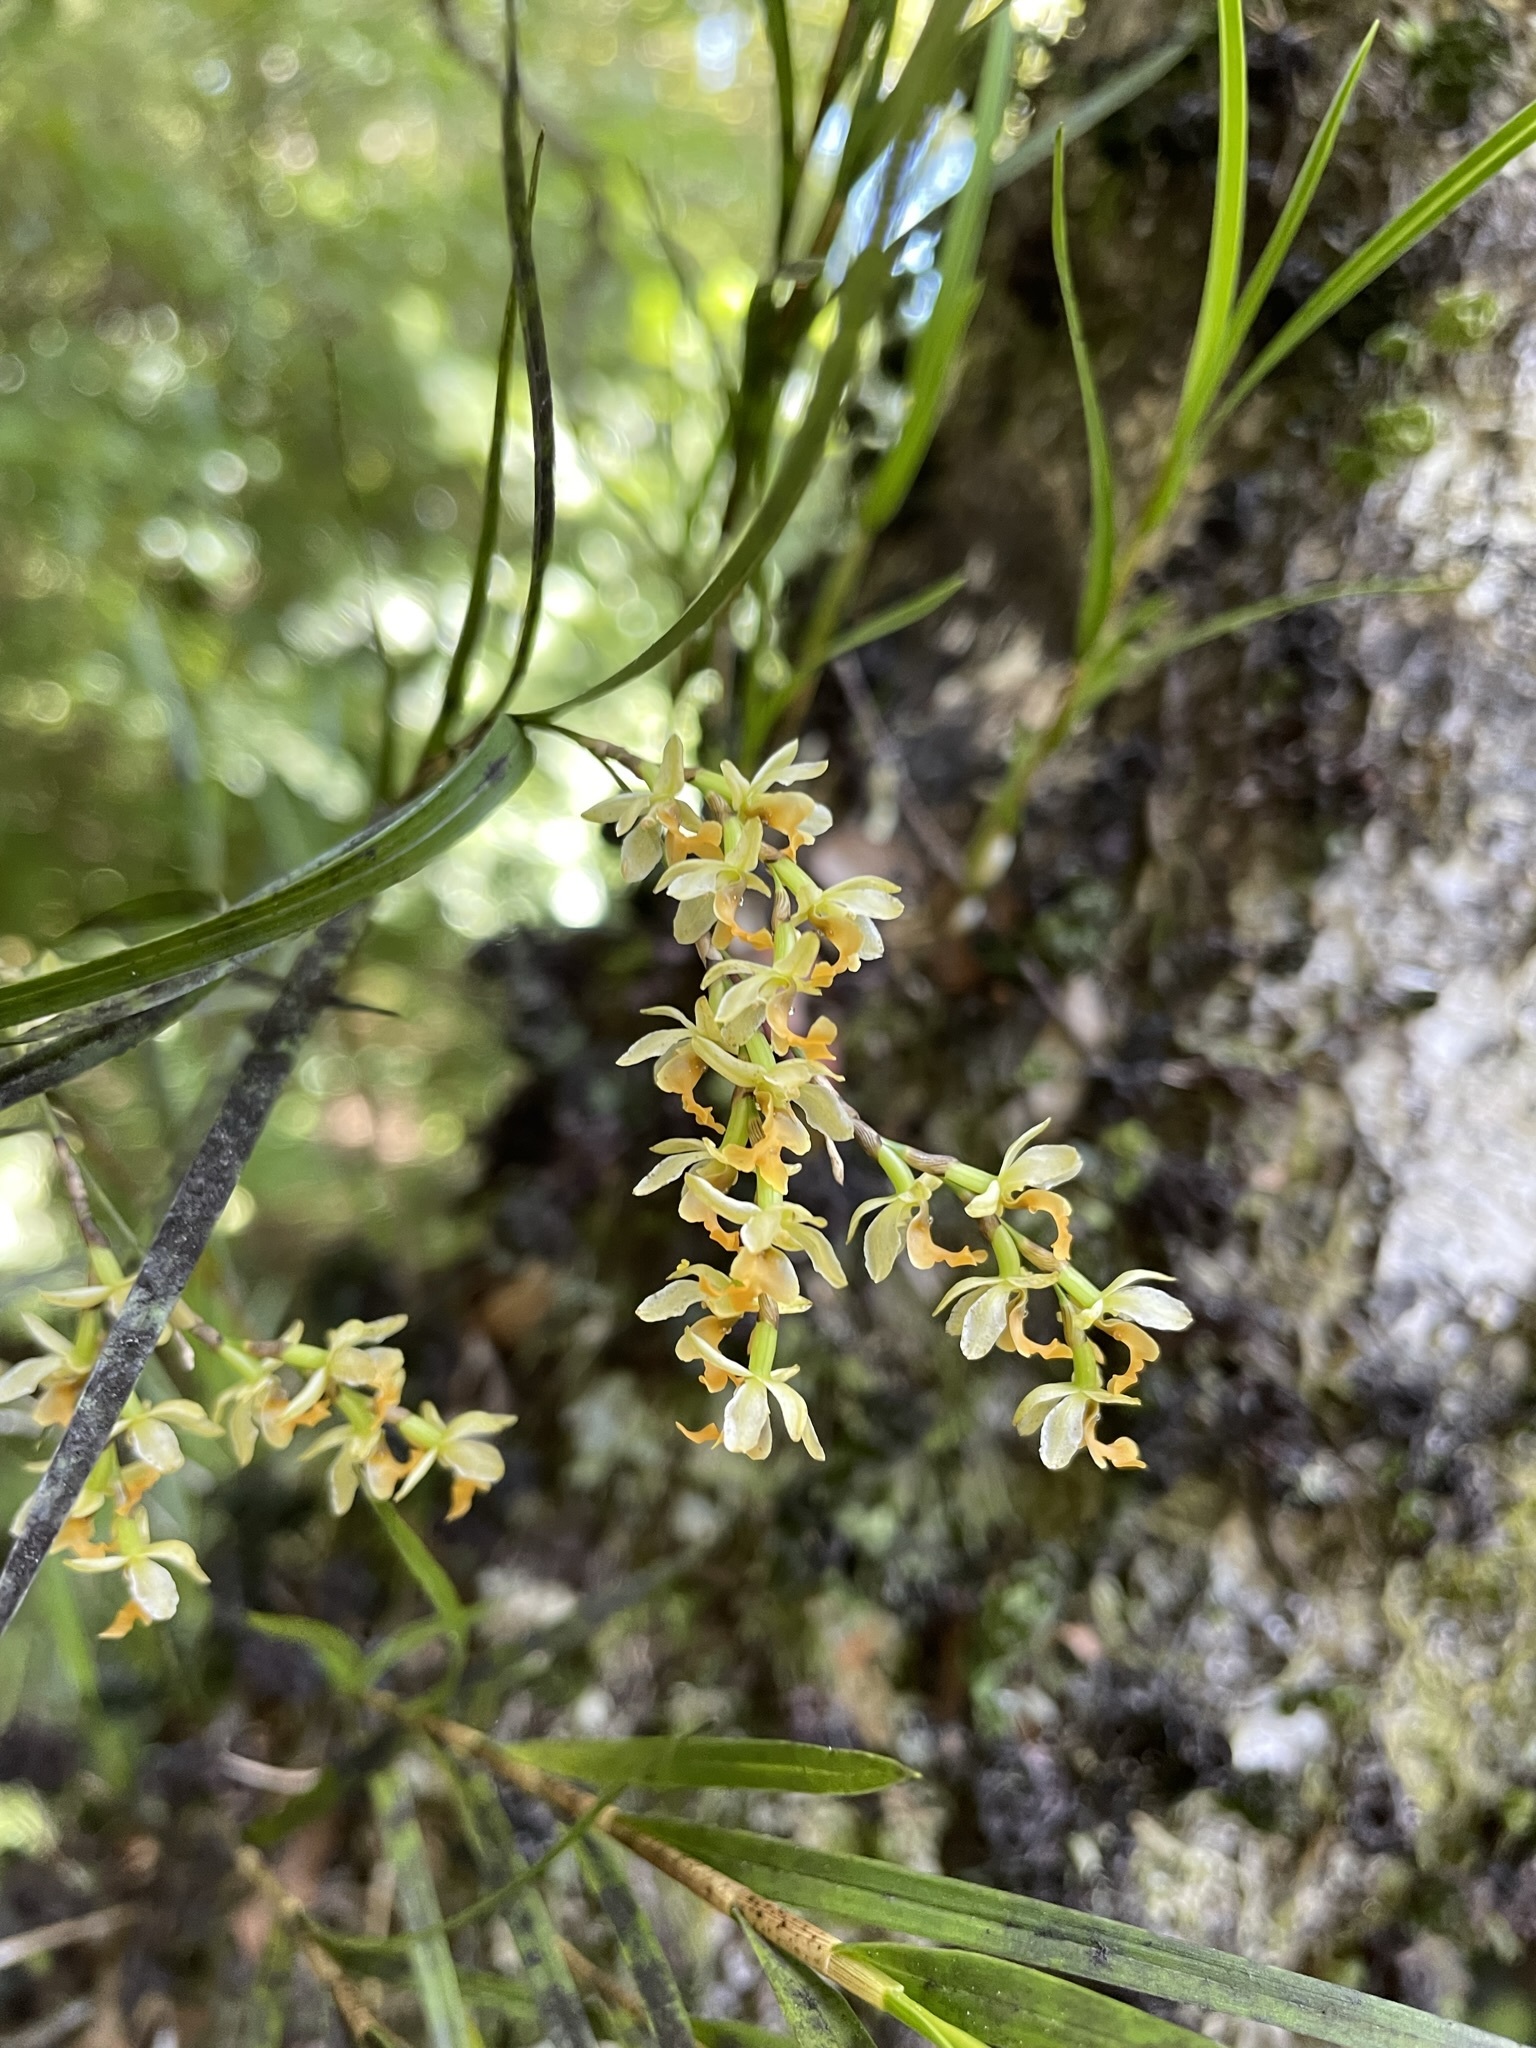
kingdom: Plantae
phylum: Tracheophyta
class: Liliopsida
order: Asparagales
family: Orchidaceae
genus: Earina
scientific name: Earina mucronata
